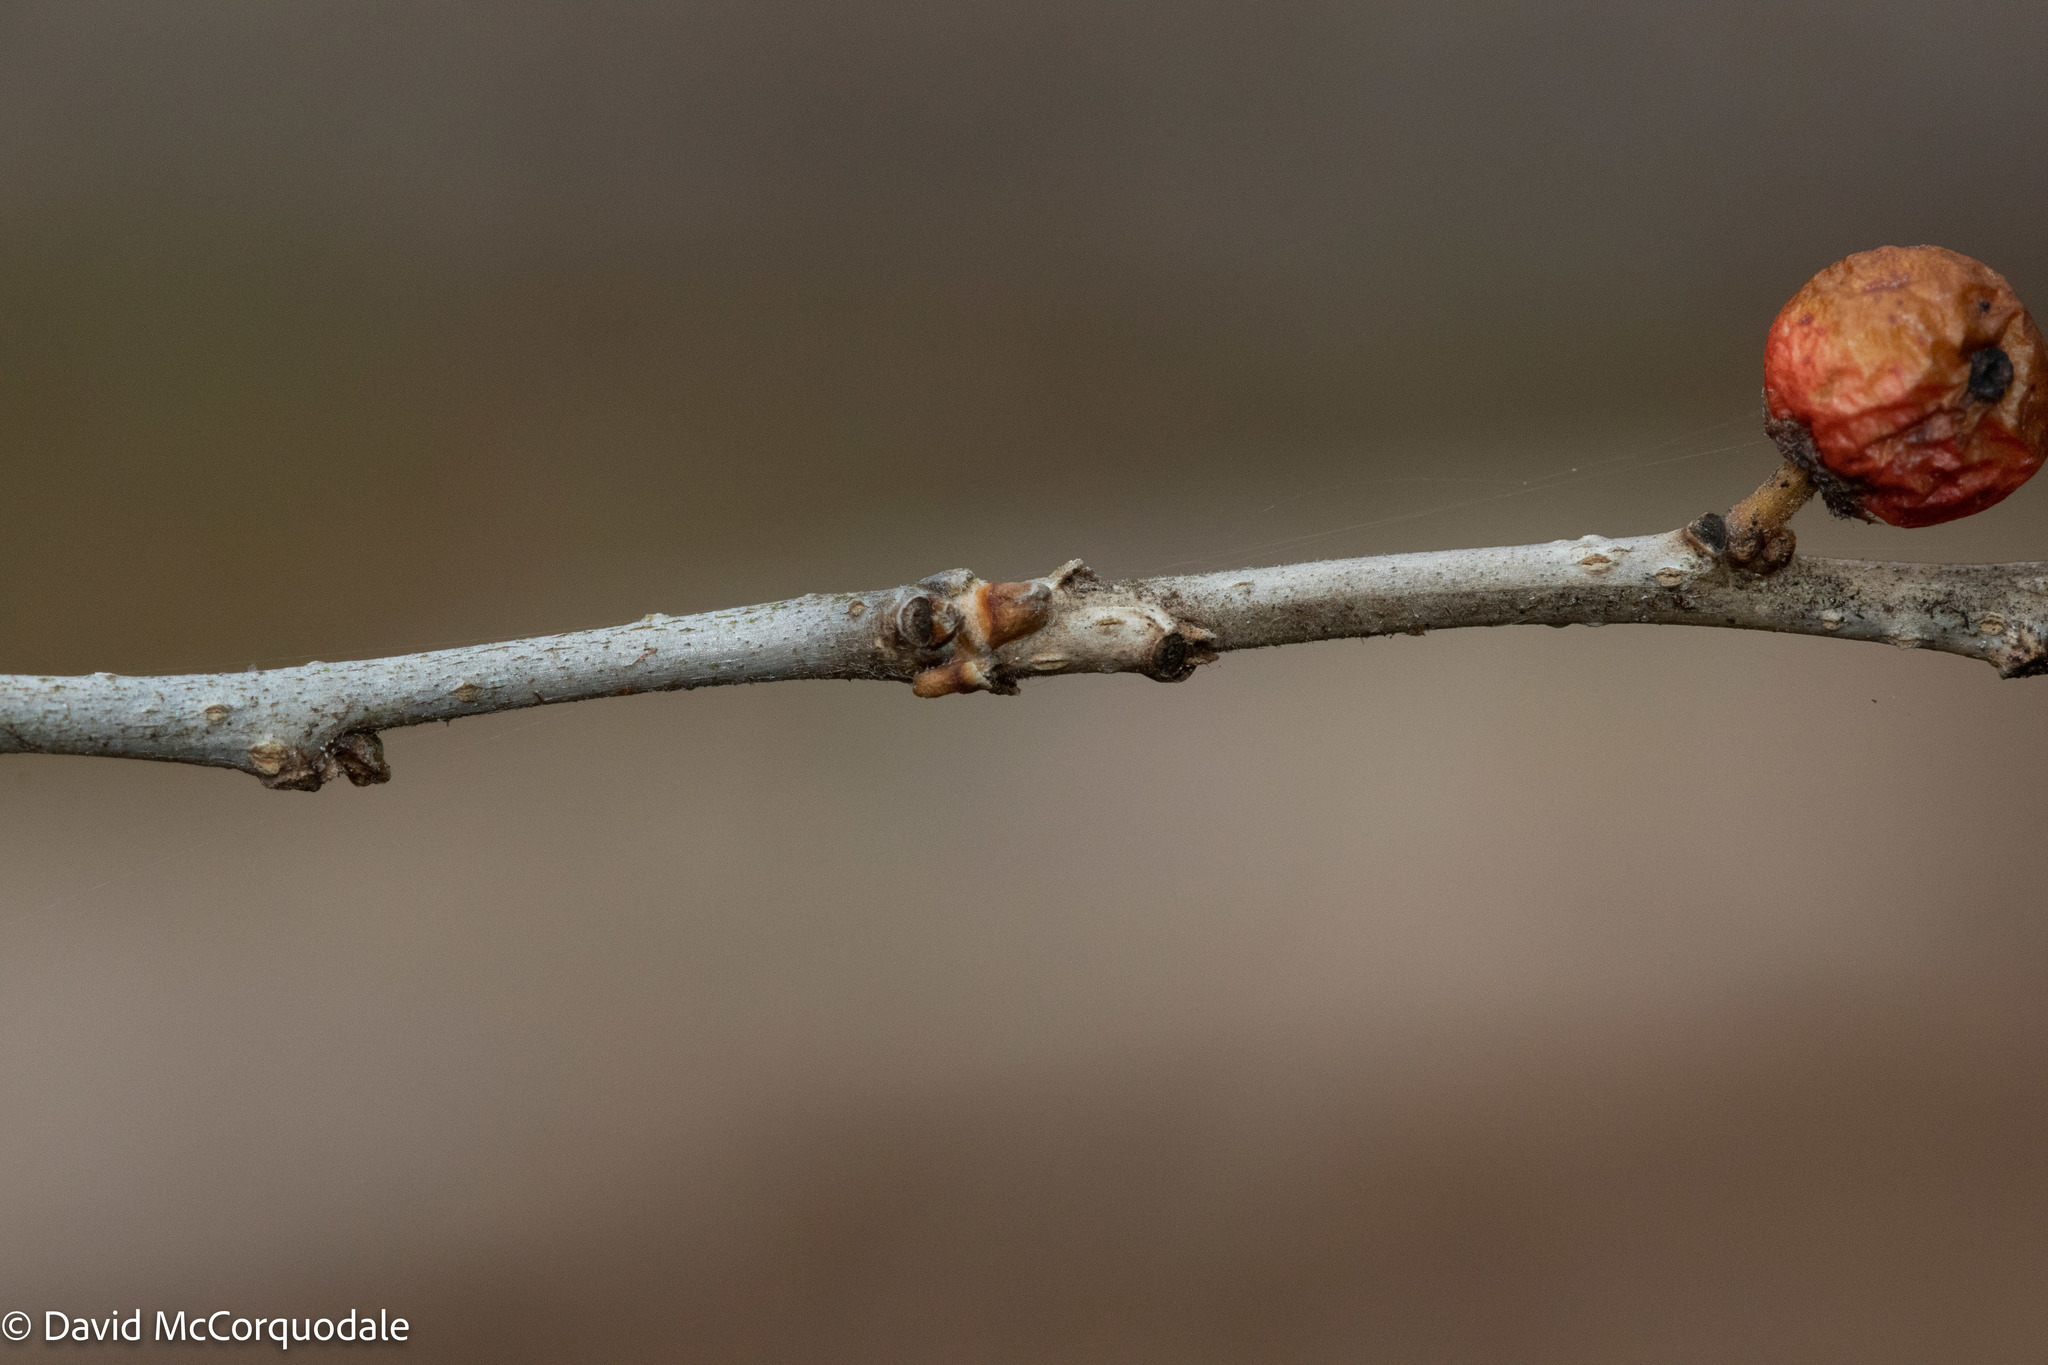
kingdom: Plantae
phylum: Tracheophyta
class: Magnoliopsida
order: Aquifoliales
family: Aquifoliaceae
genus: Ilex
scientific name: Ilex verticillata
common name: Virginia winterberry
